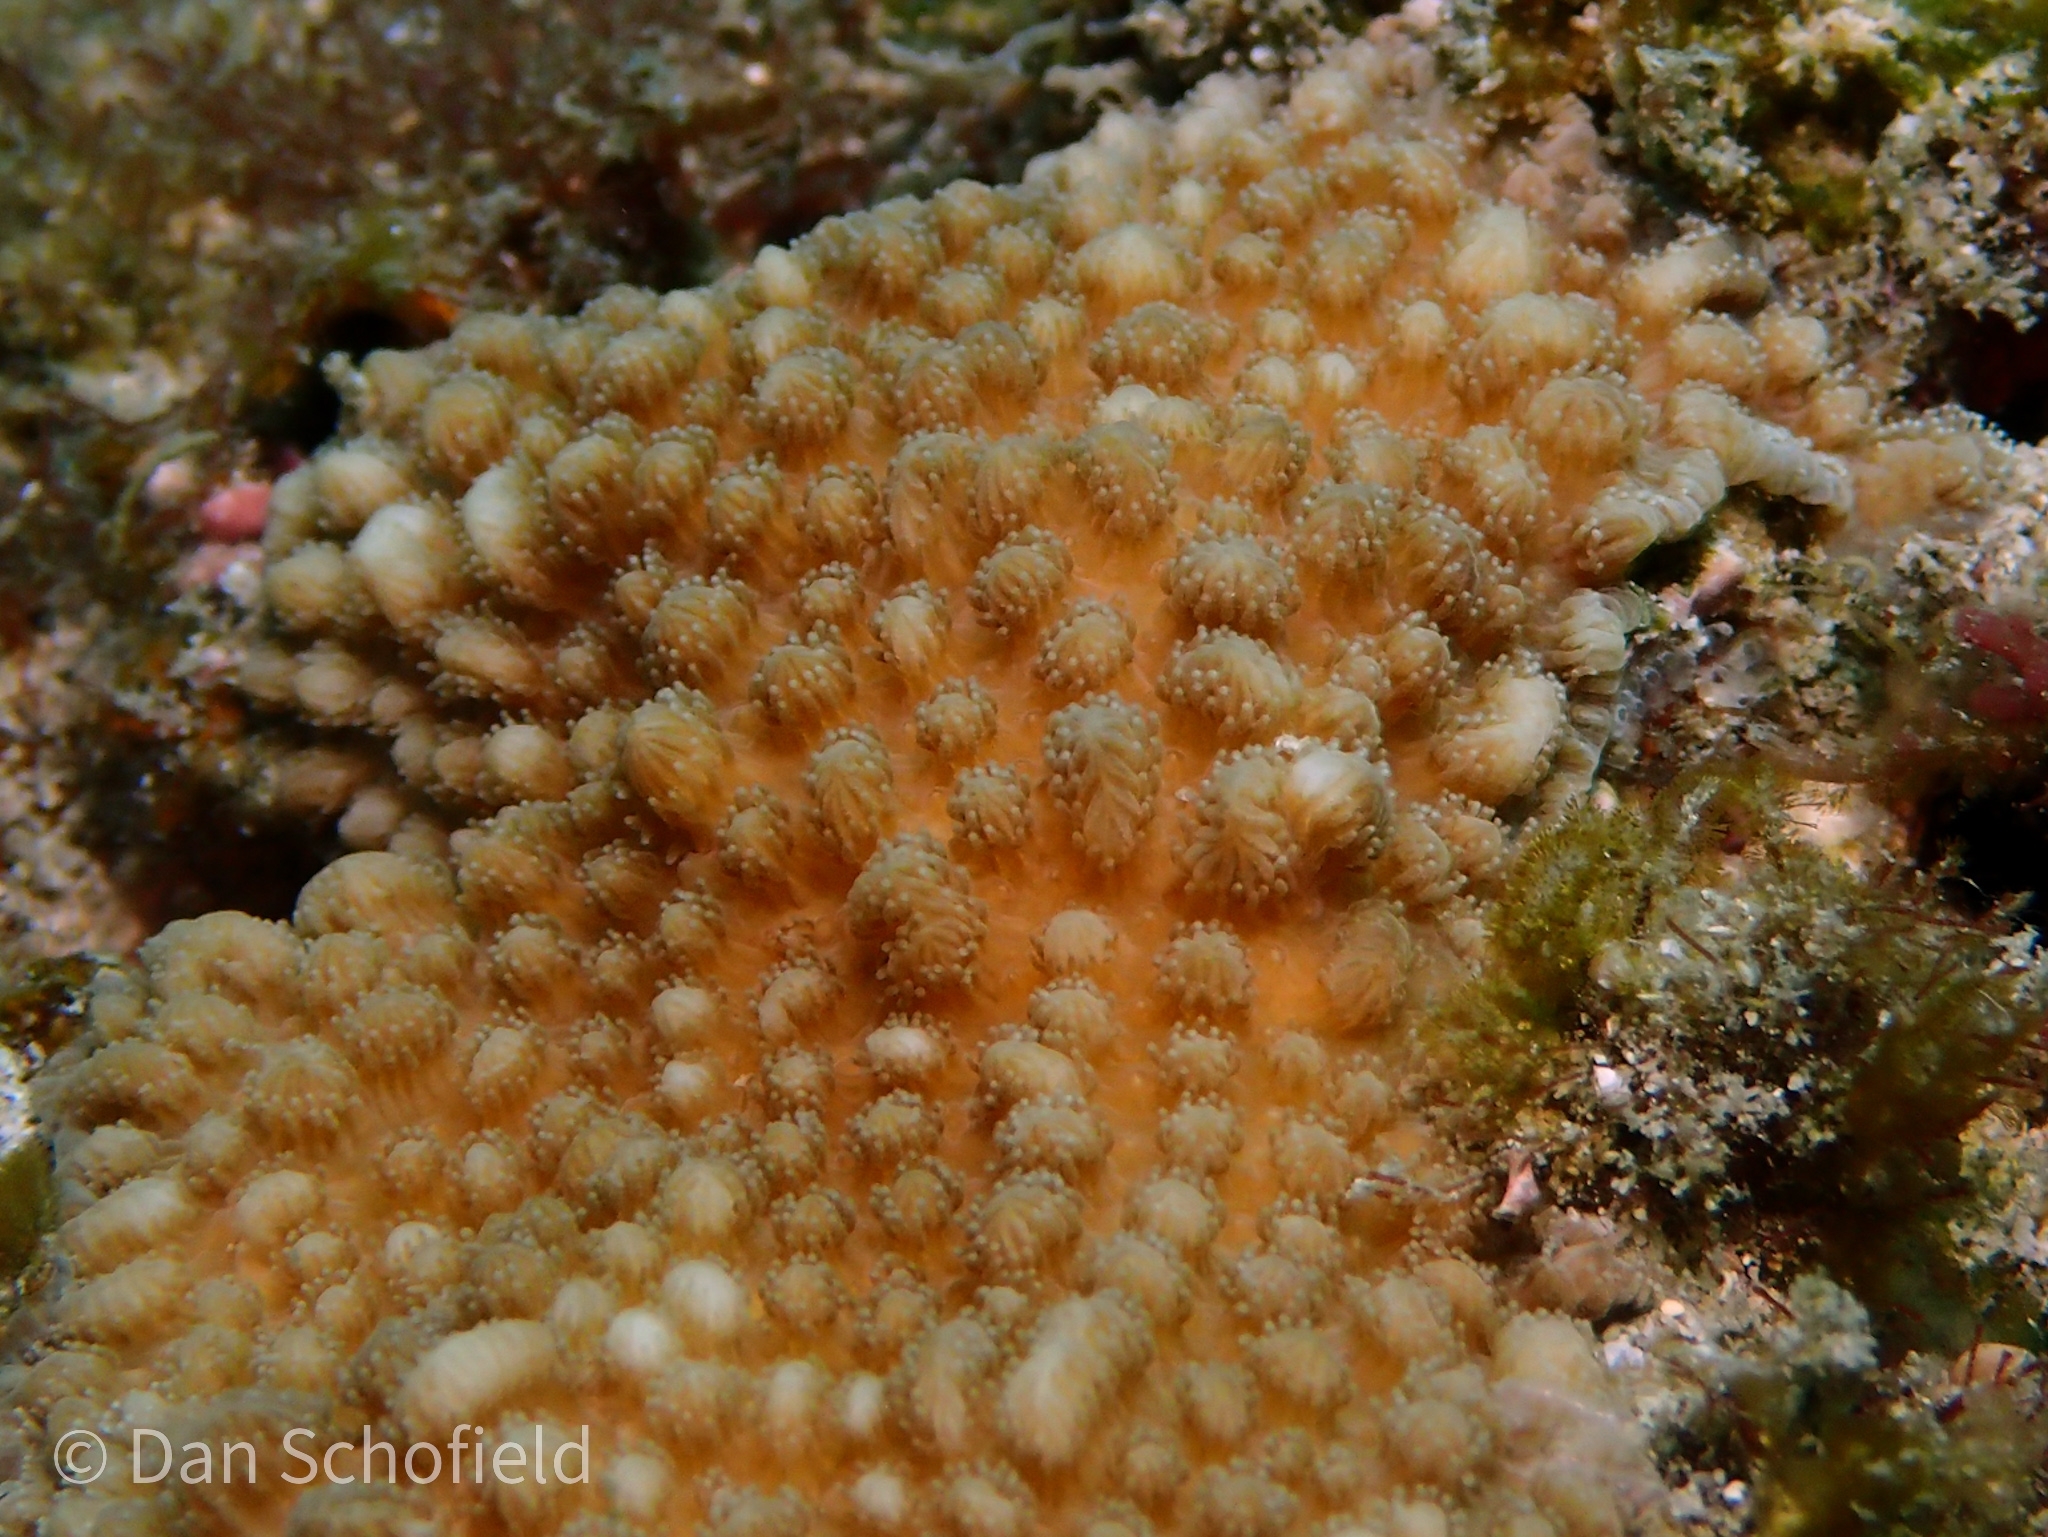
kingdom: Animalia
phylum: Cnidaria
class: Anthozoa
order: Scleractinia
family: Merulinidae
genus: Hydnophora
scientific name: Hydnophora exesa
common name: Spine coral
